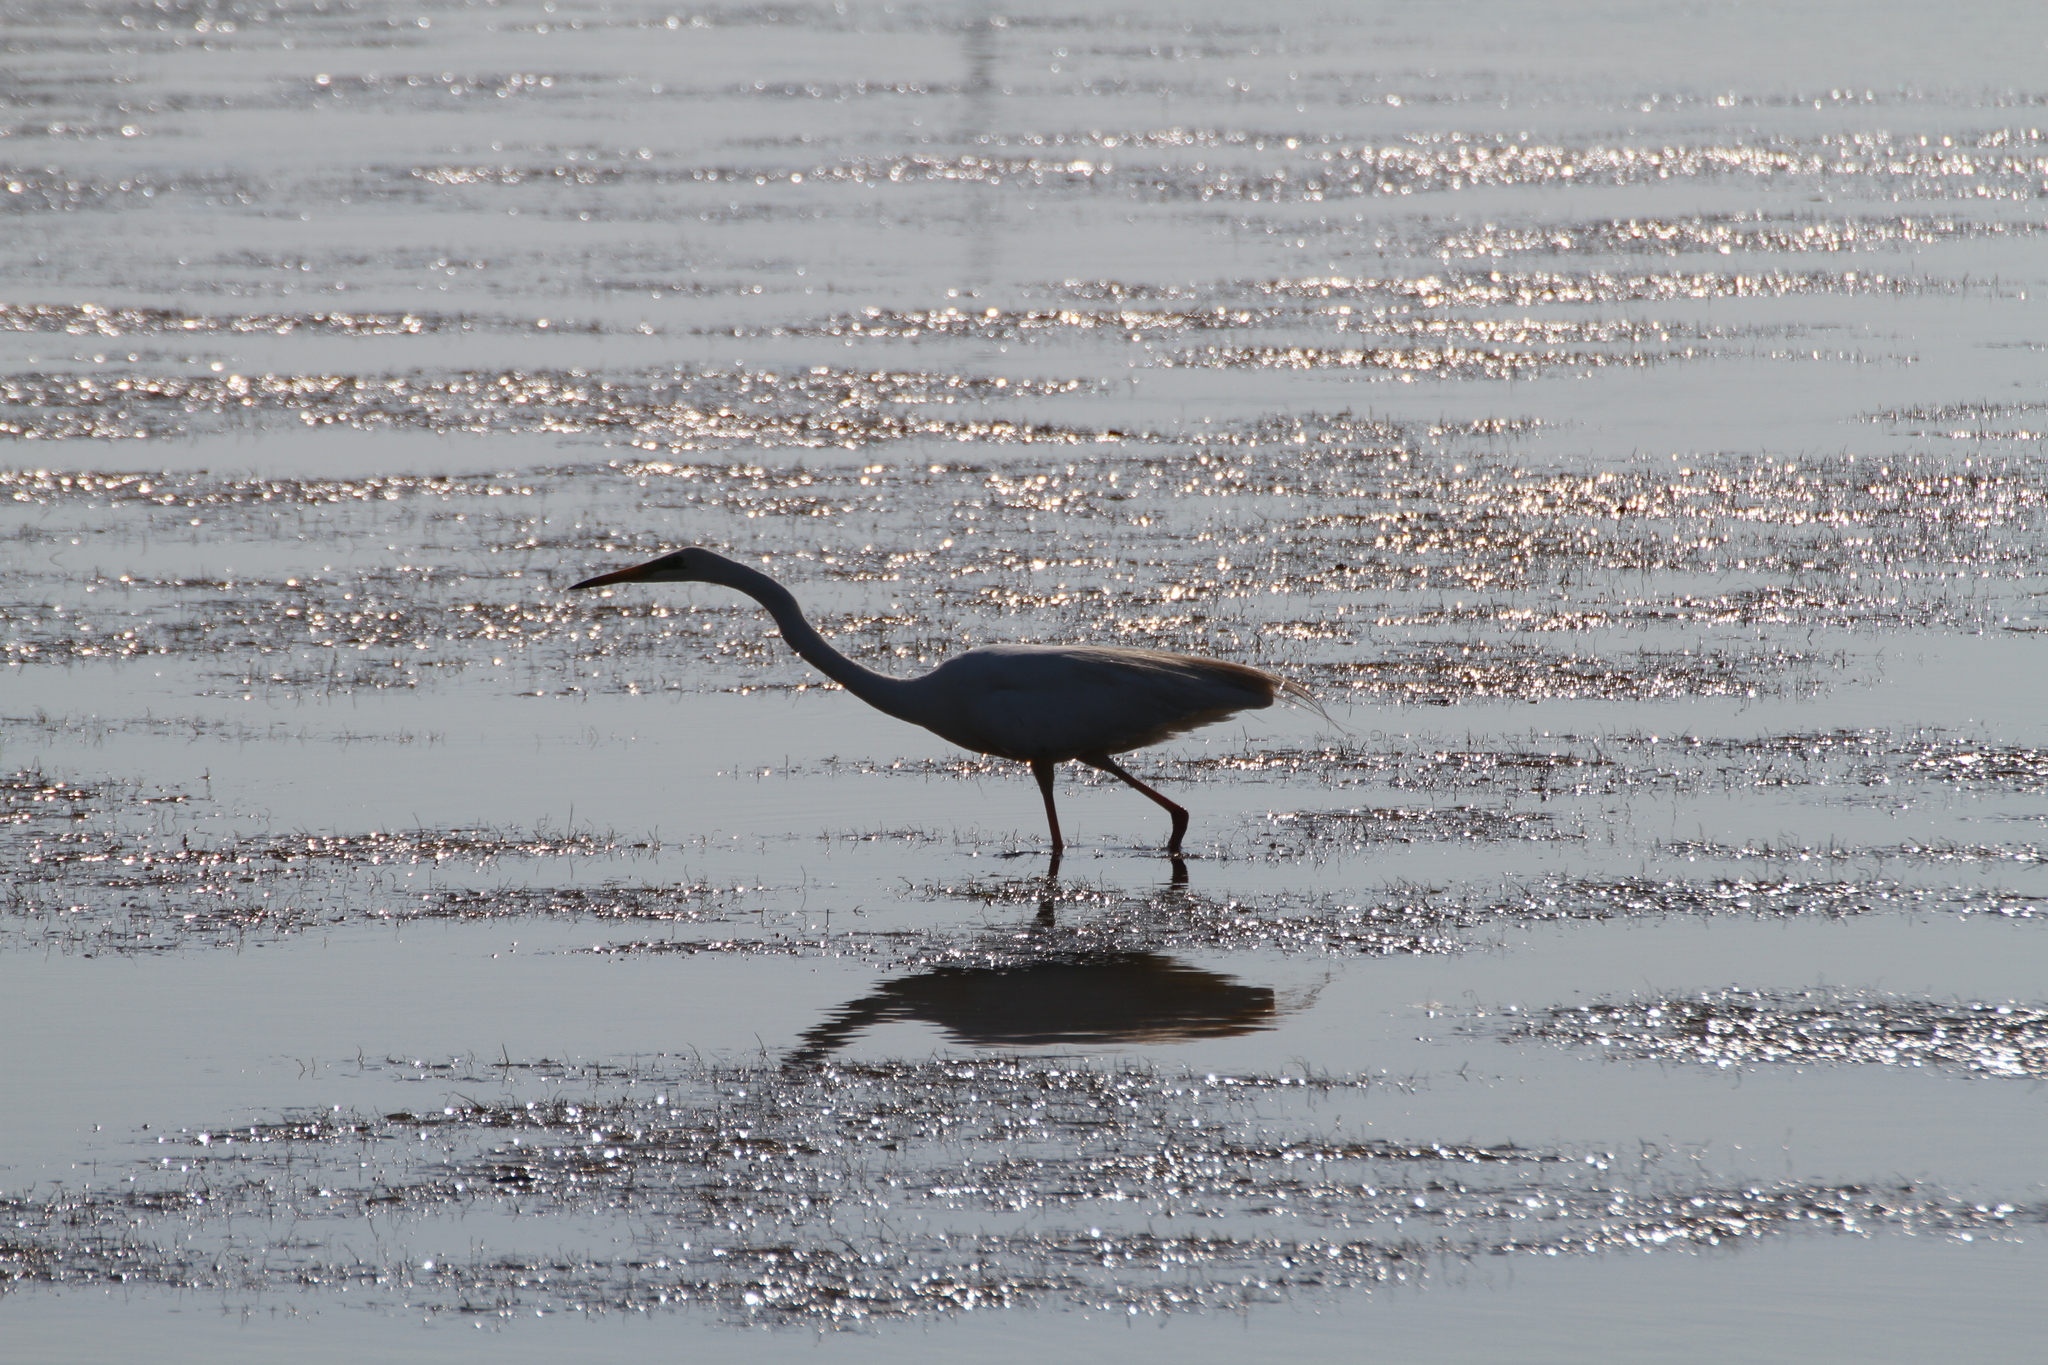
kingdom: Animalia
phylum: Chordata
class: Aves
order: Pelecaniformes
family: Ardeidae
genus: Ardea
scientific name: Ardea alba
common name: Great egret
